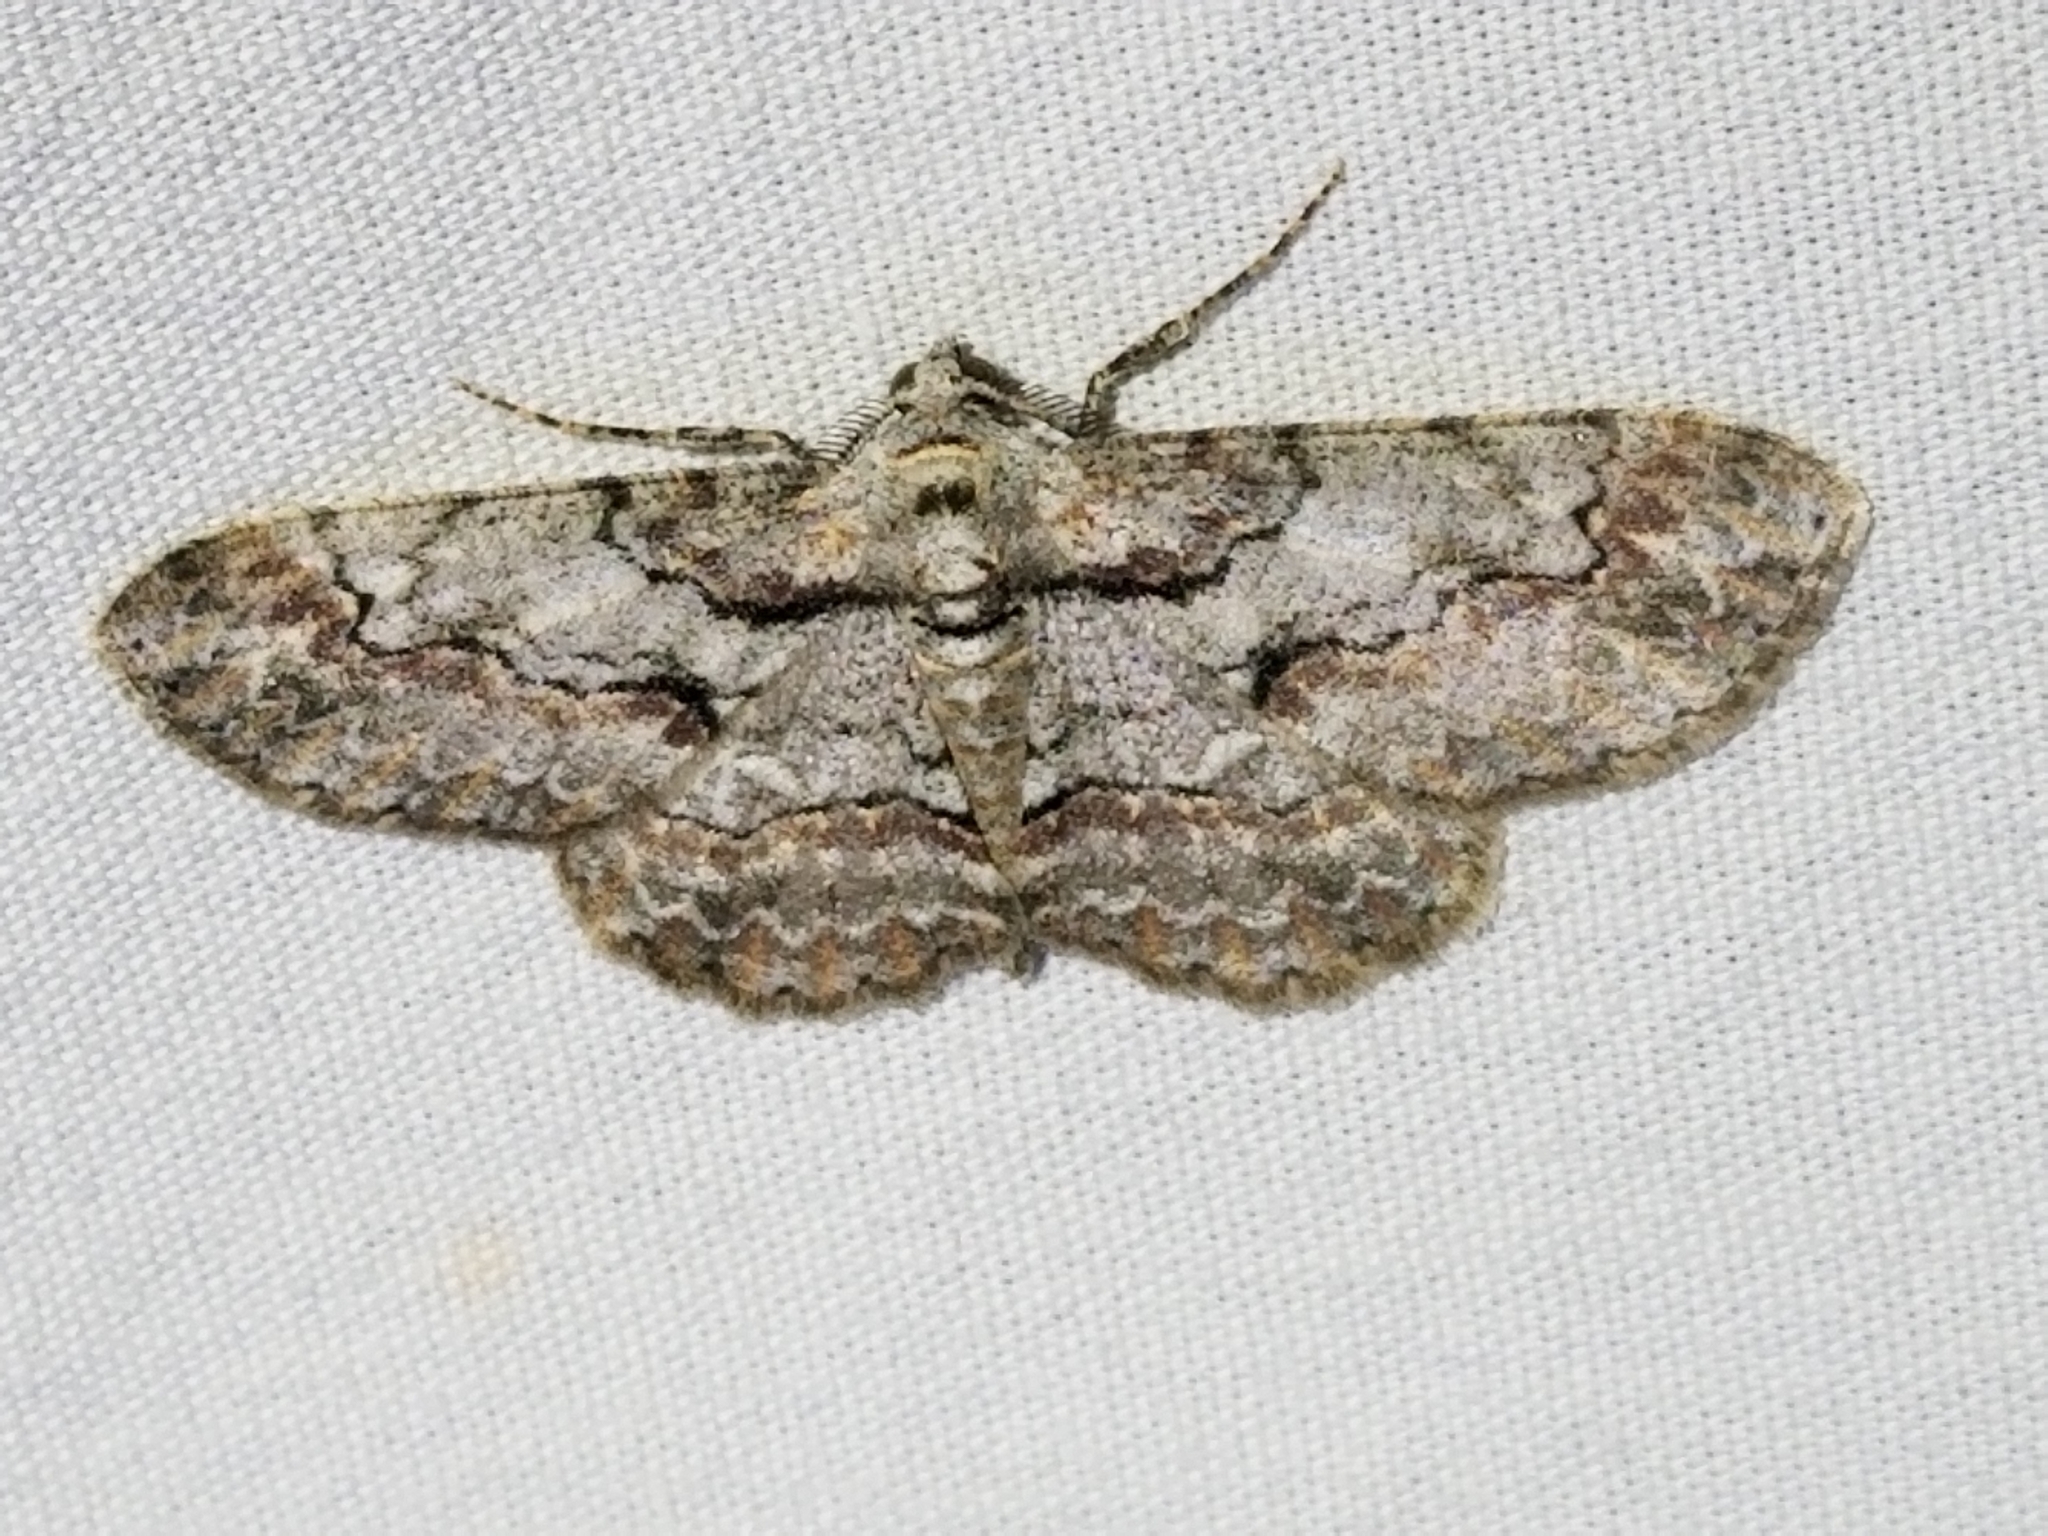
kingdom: Animalia
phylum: Arthropoda
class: Insecta
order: Lepidoptera
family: Geometridae
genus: Iridopsis
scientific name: Iridopsis defectaria
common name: Brown-shaded gray
